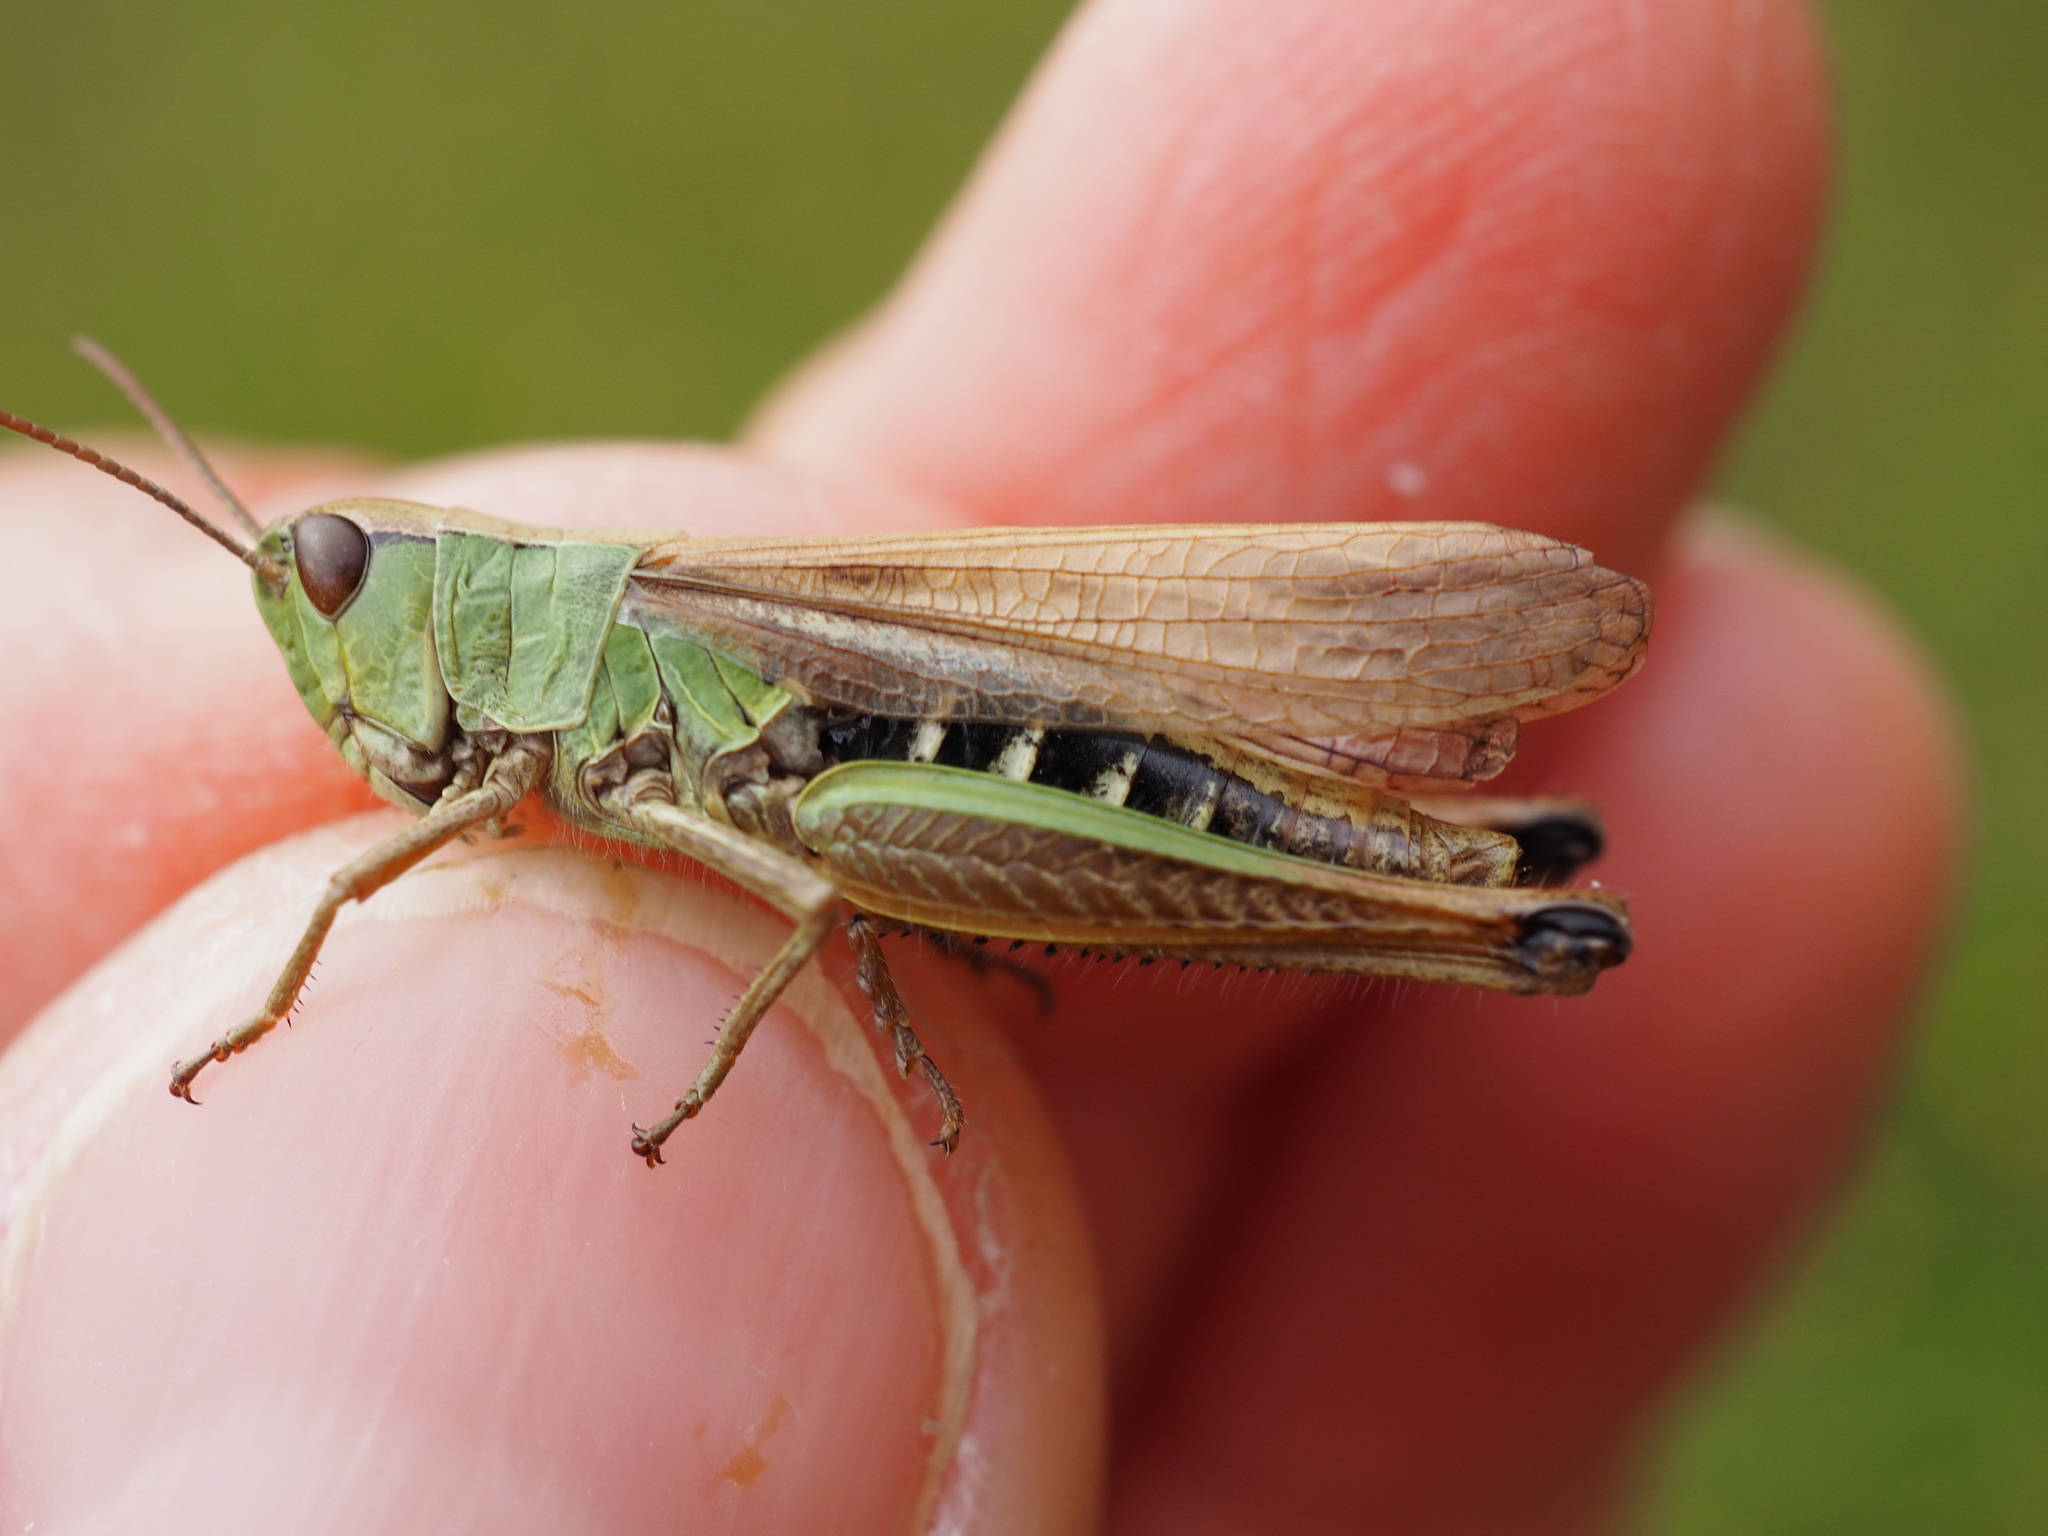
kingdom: Animalia
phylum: Arthropoda
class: Insecta
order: Orthoptera
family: Acrididae
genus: Pseudochorthippus
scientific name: Pseudochorthippus parallelus
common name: Meadow grasshopper
